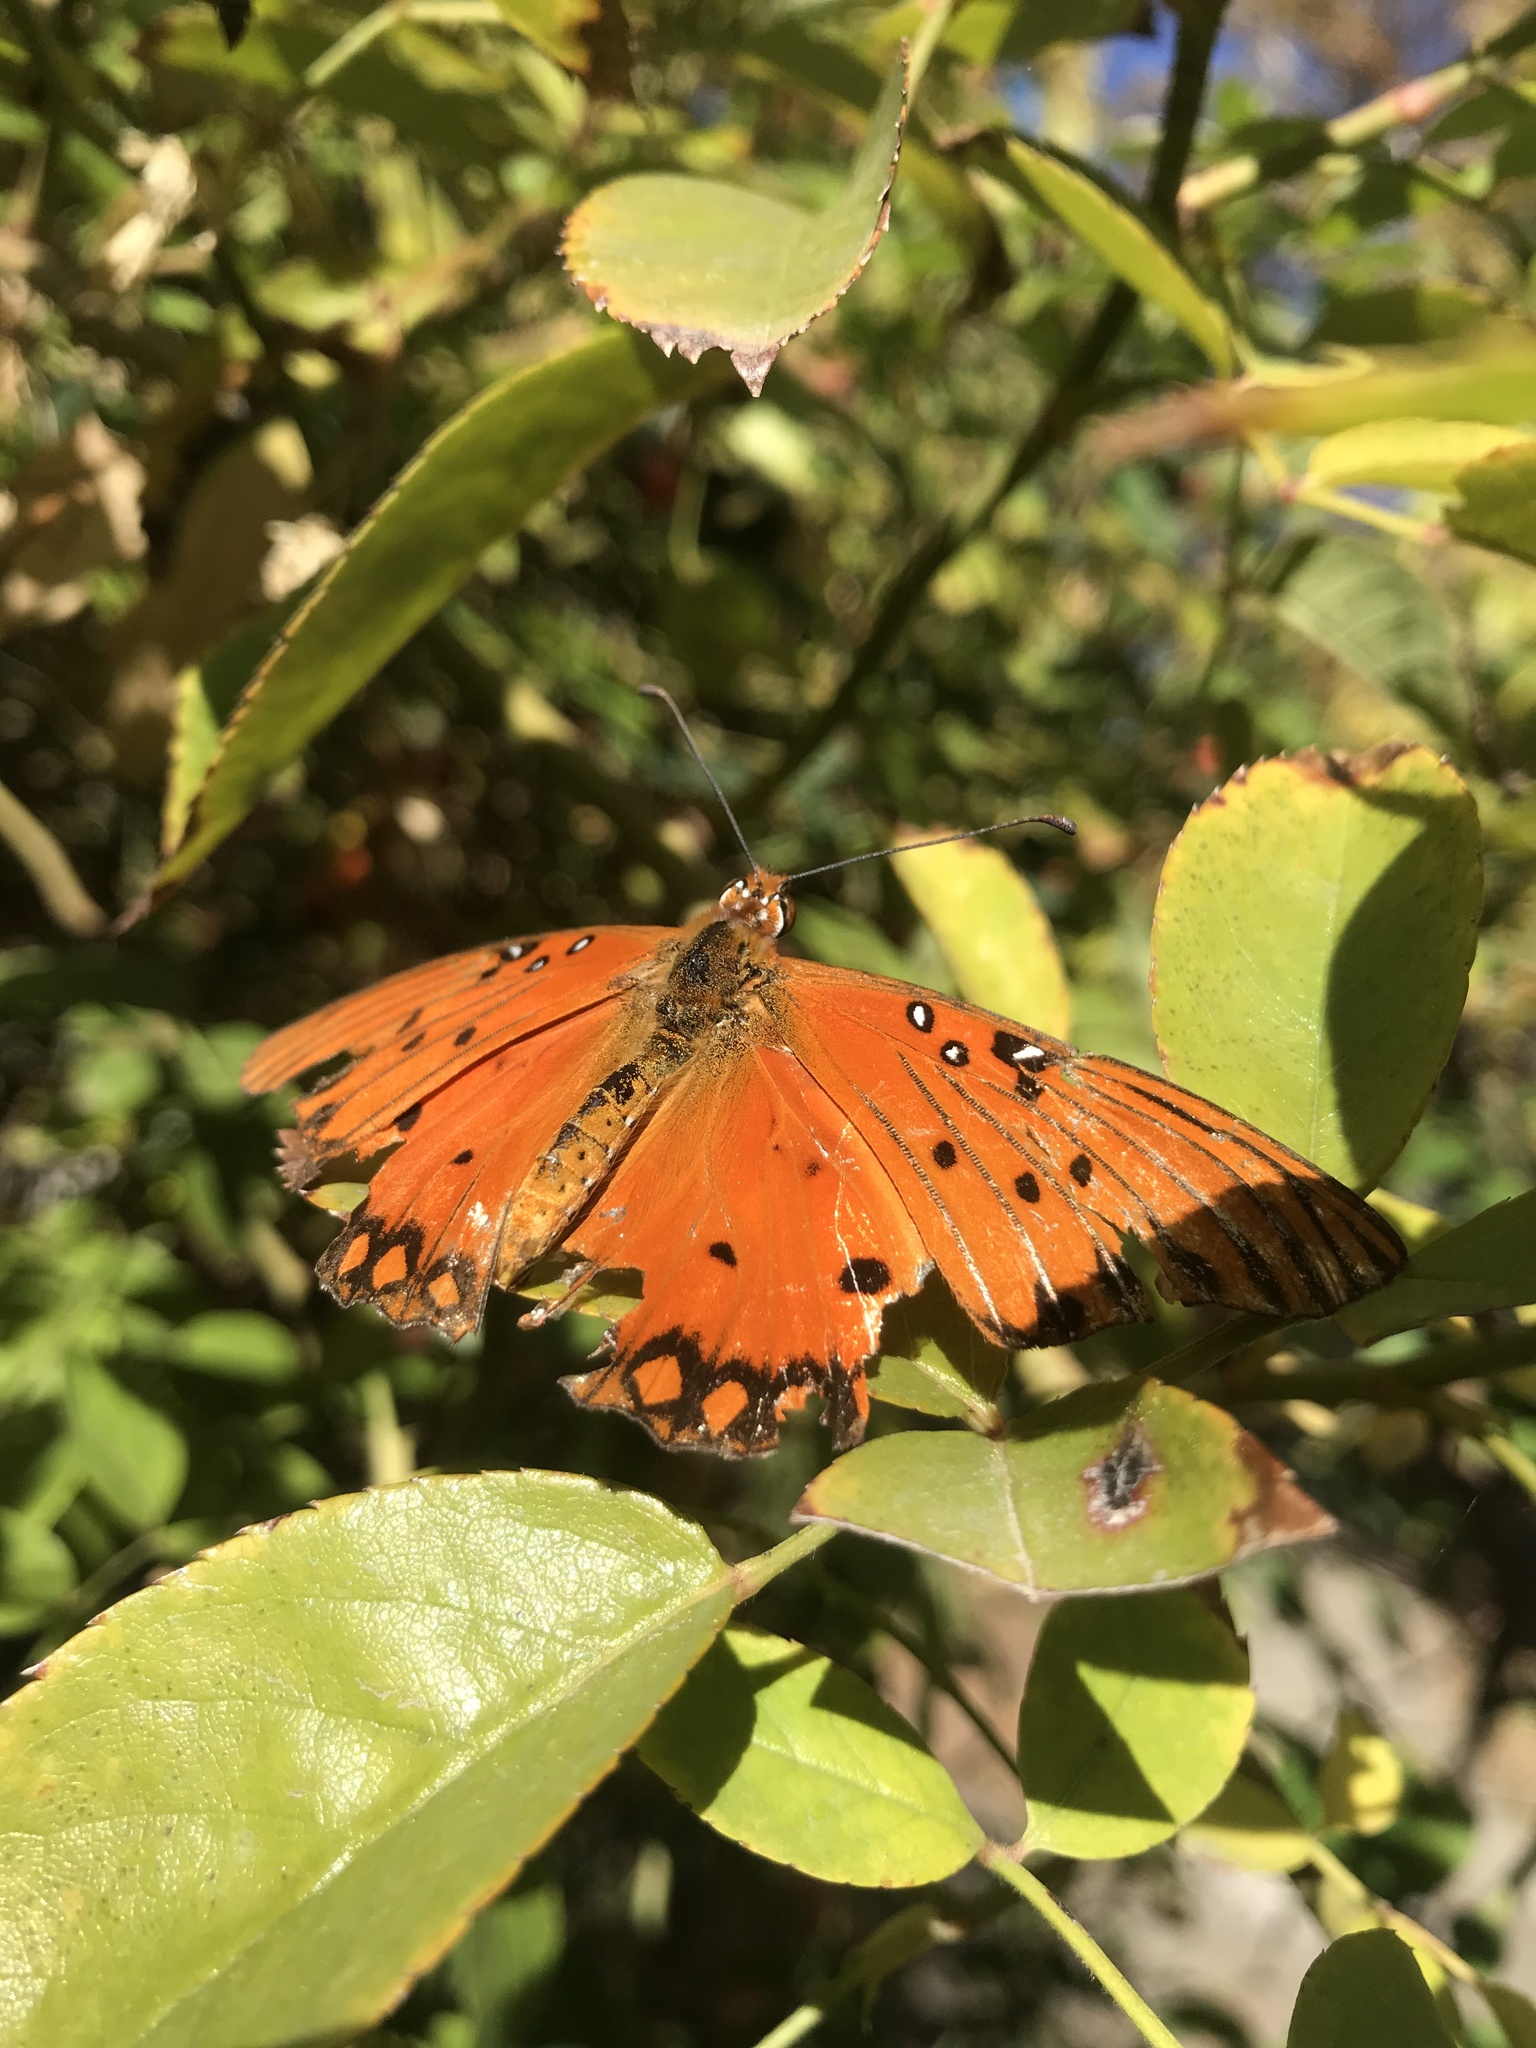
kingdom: Animalia
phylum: Arthropoda
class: Insecta
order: Lepidoptera
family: Nymphalidae
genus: Dione
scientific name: Dione vanillae
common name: Gulf fritillary
